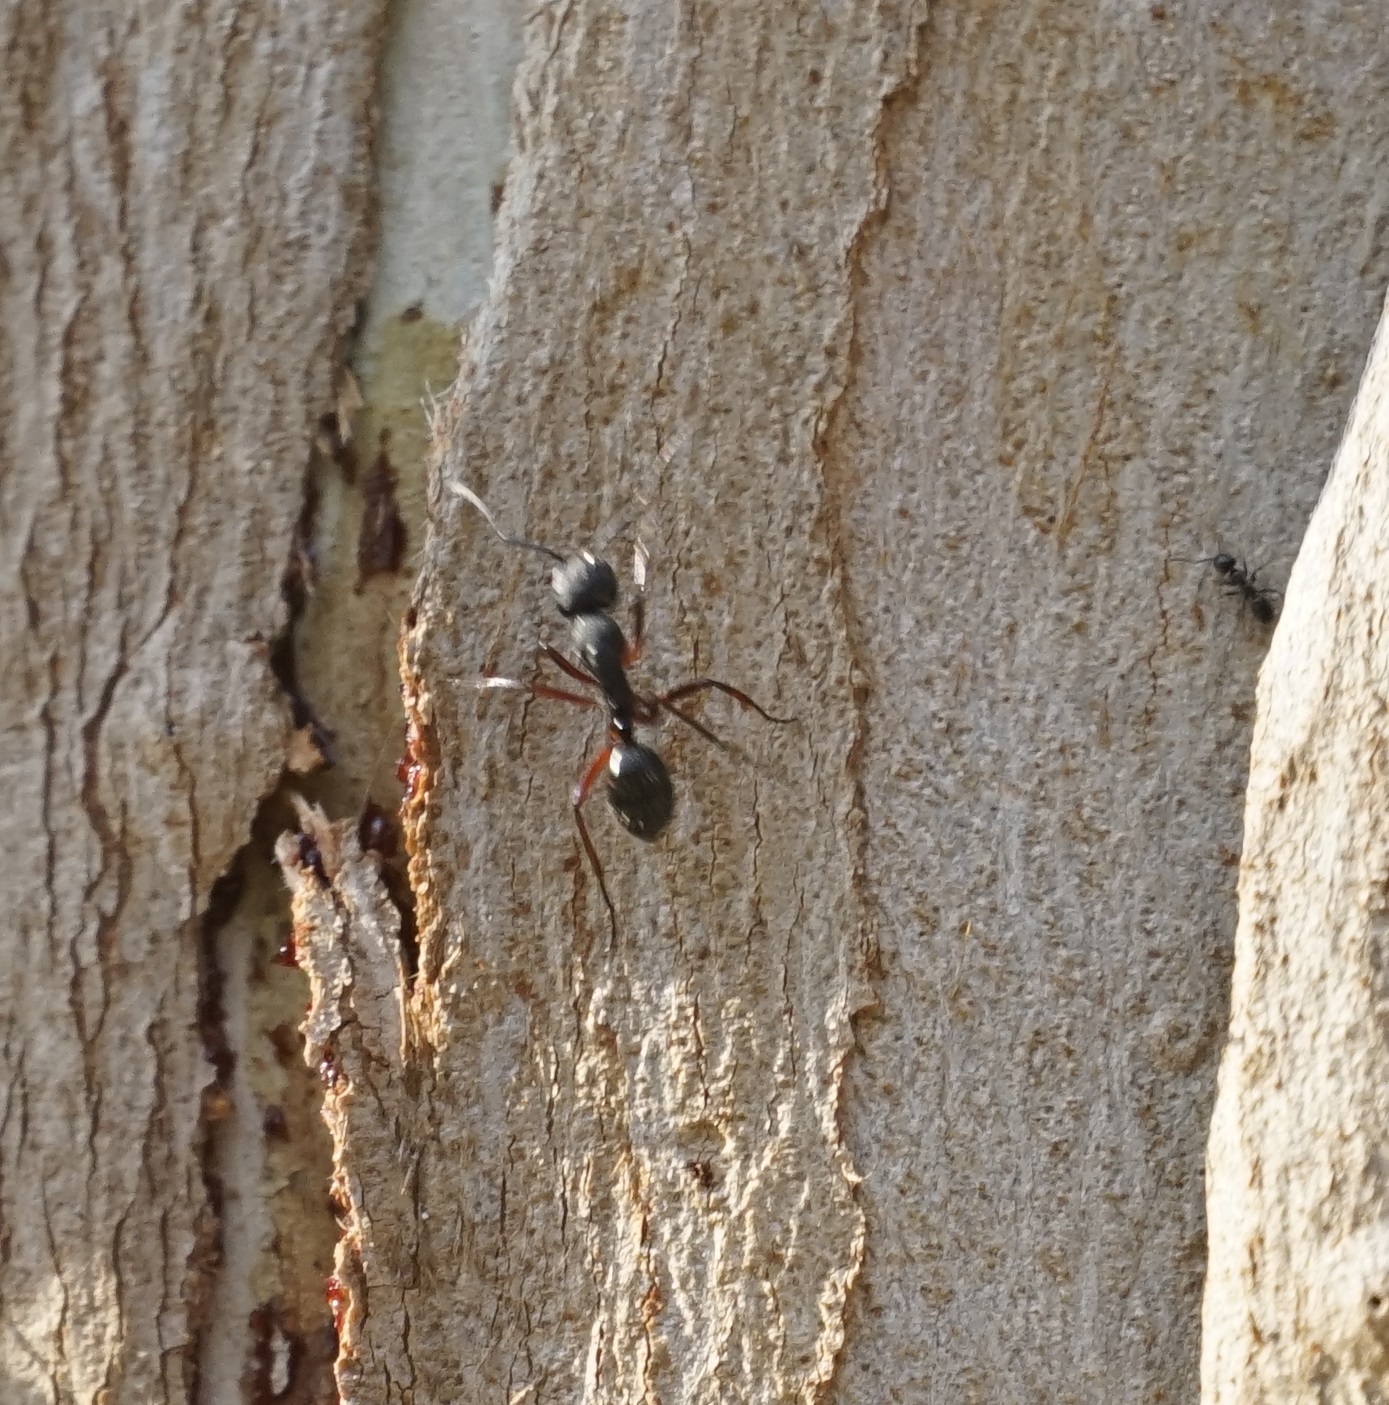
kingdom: Animalia
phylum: Arthropoda
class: Insecta
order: Hymenoptera
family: Formicidae
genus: Camponotus
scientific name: Camponotus
